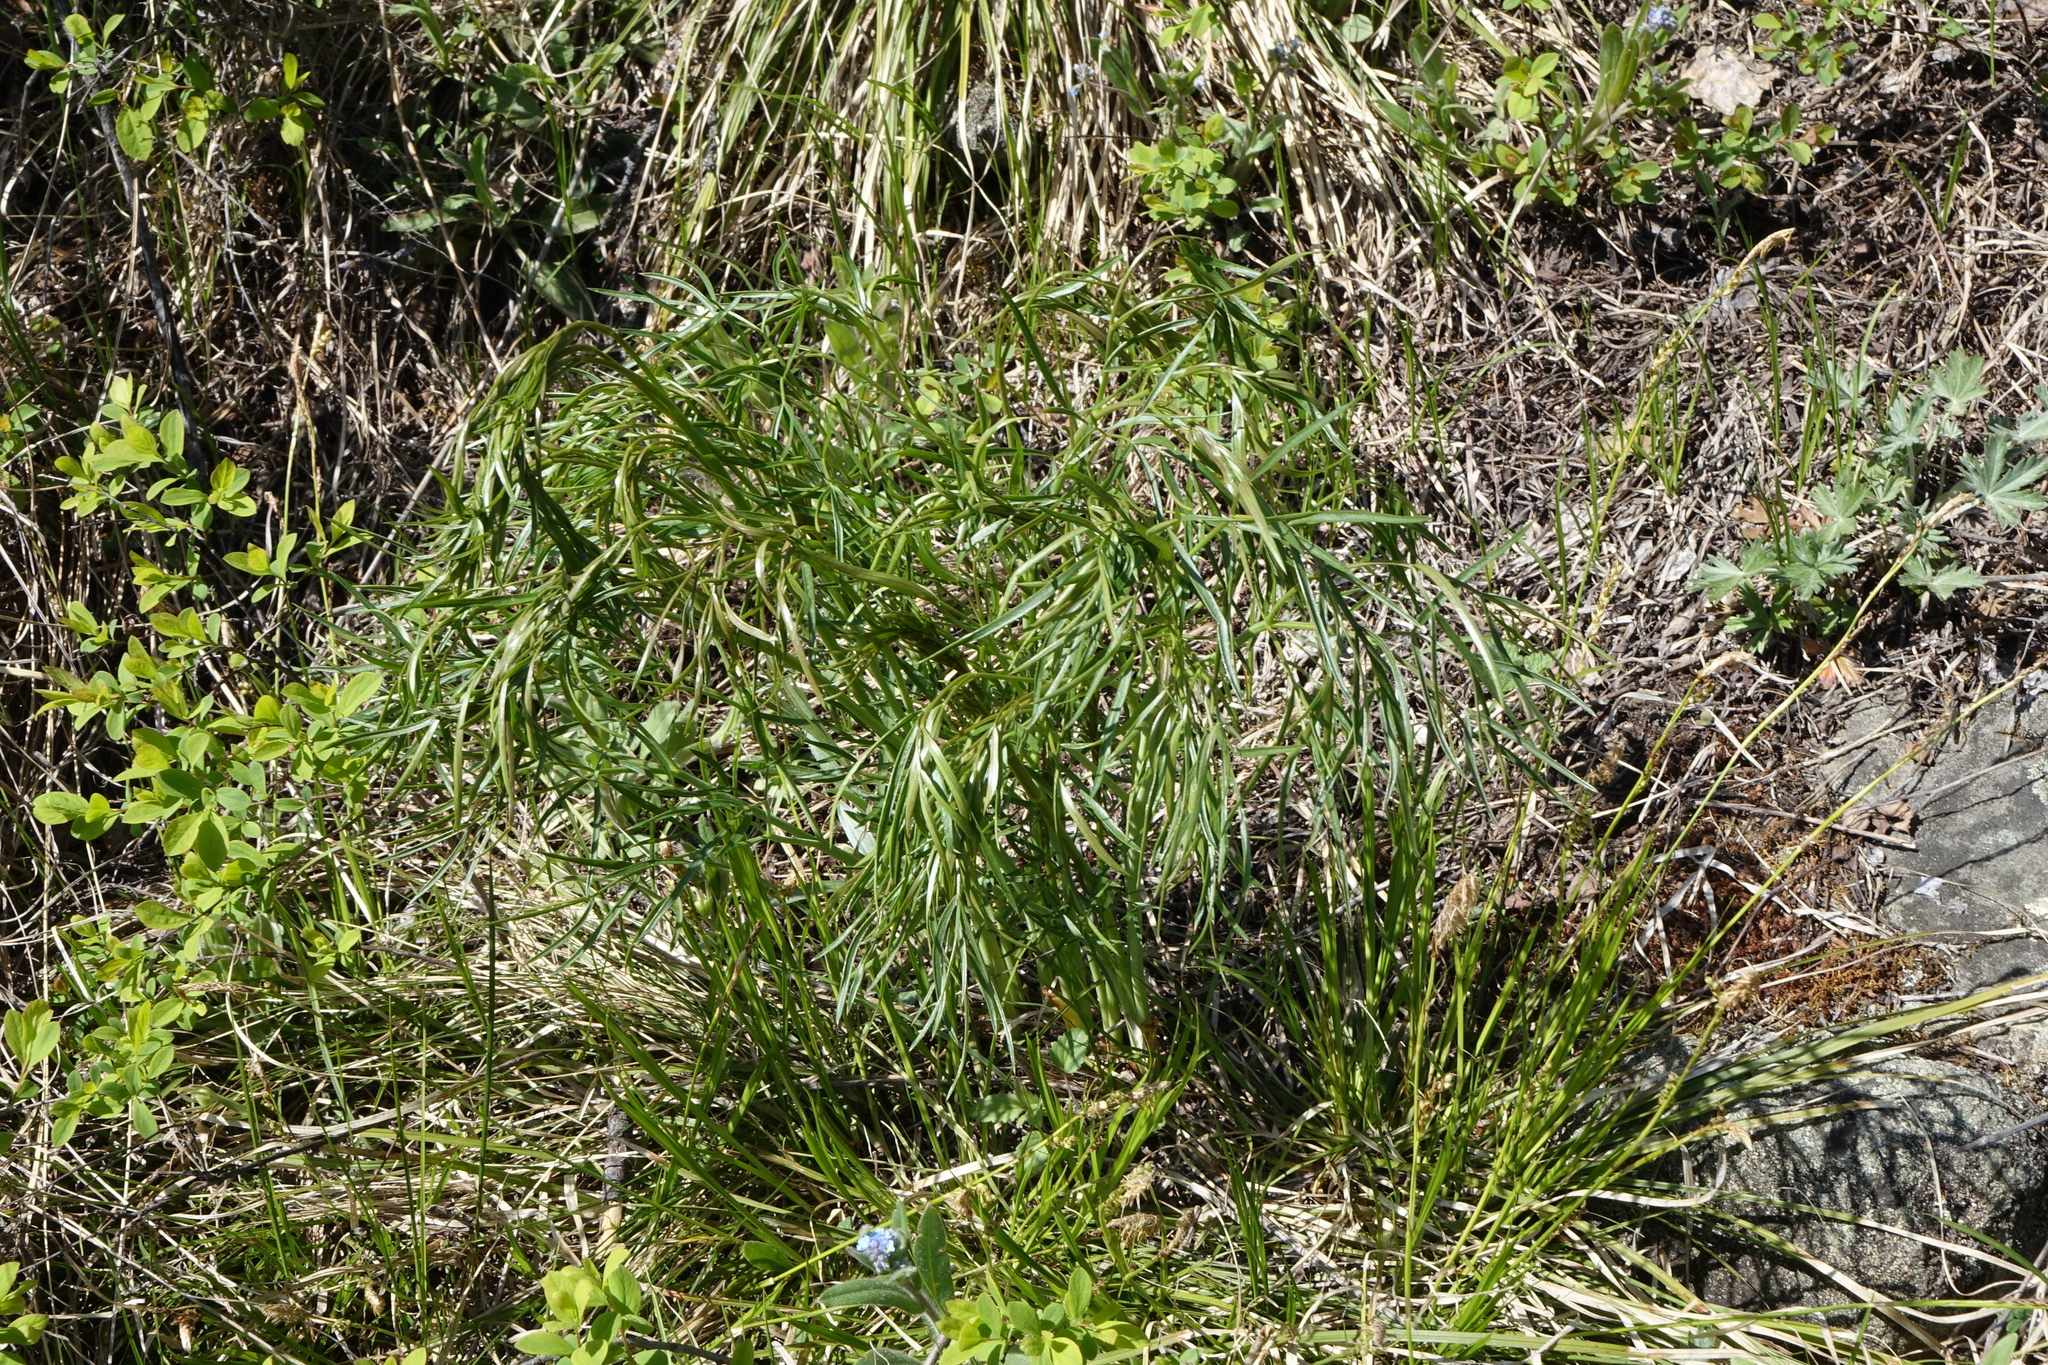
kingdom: Plantae
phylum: Tracheophyta
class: Magnoliopsida
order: Apiales
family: Apiaceae
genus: Peucedanum
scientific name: Peucedanum morisonii
